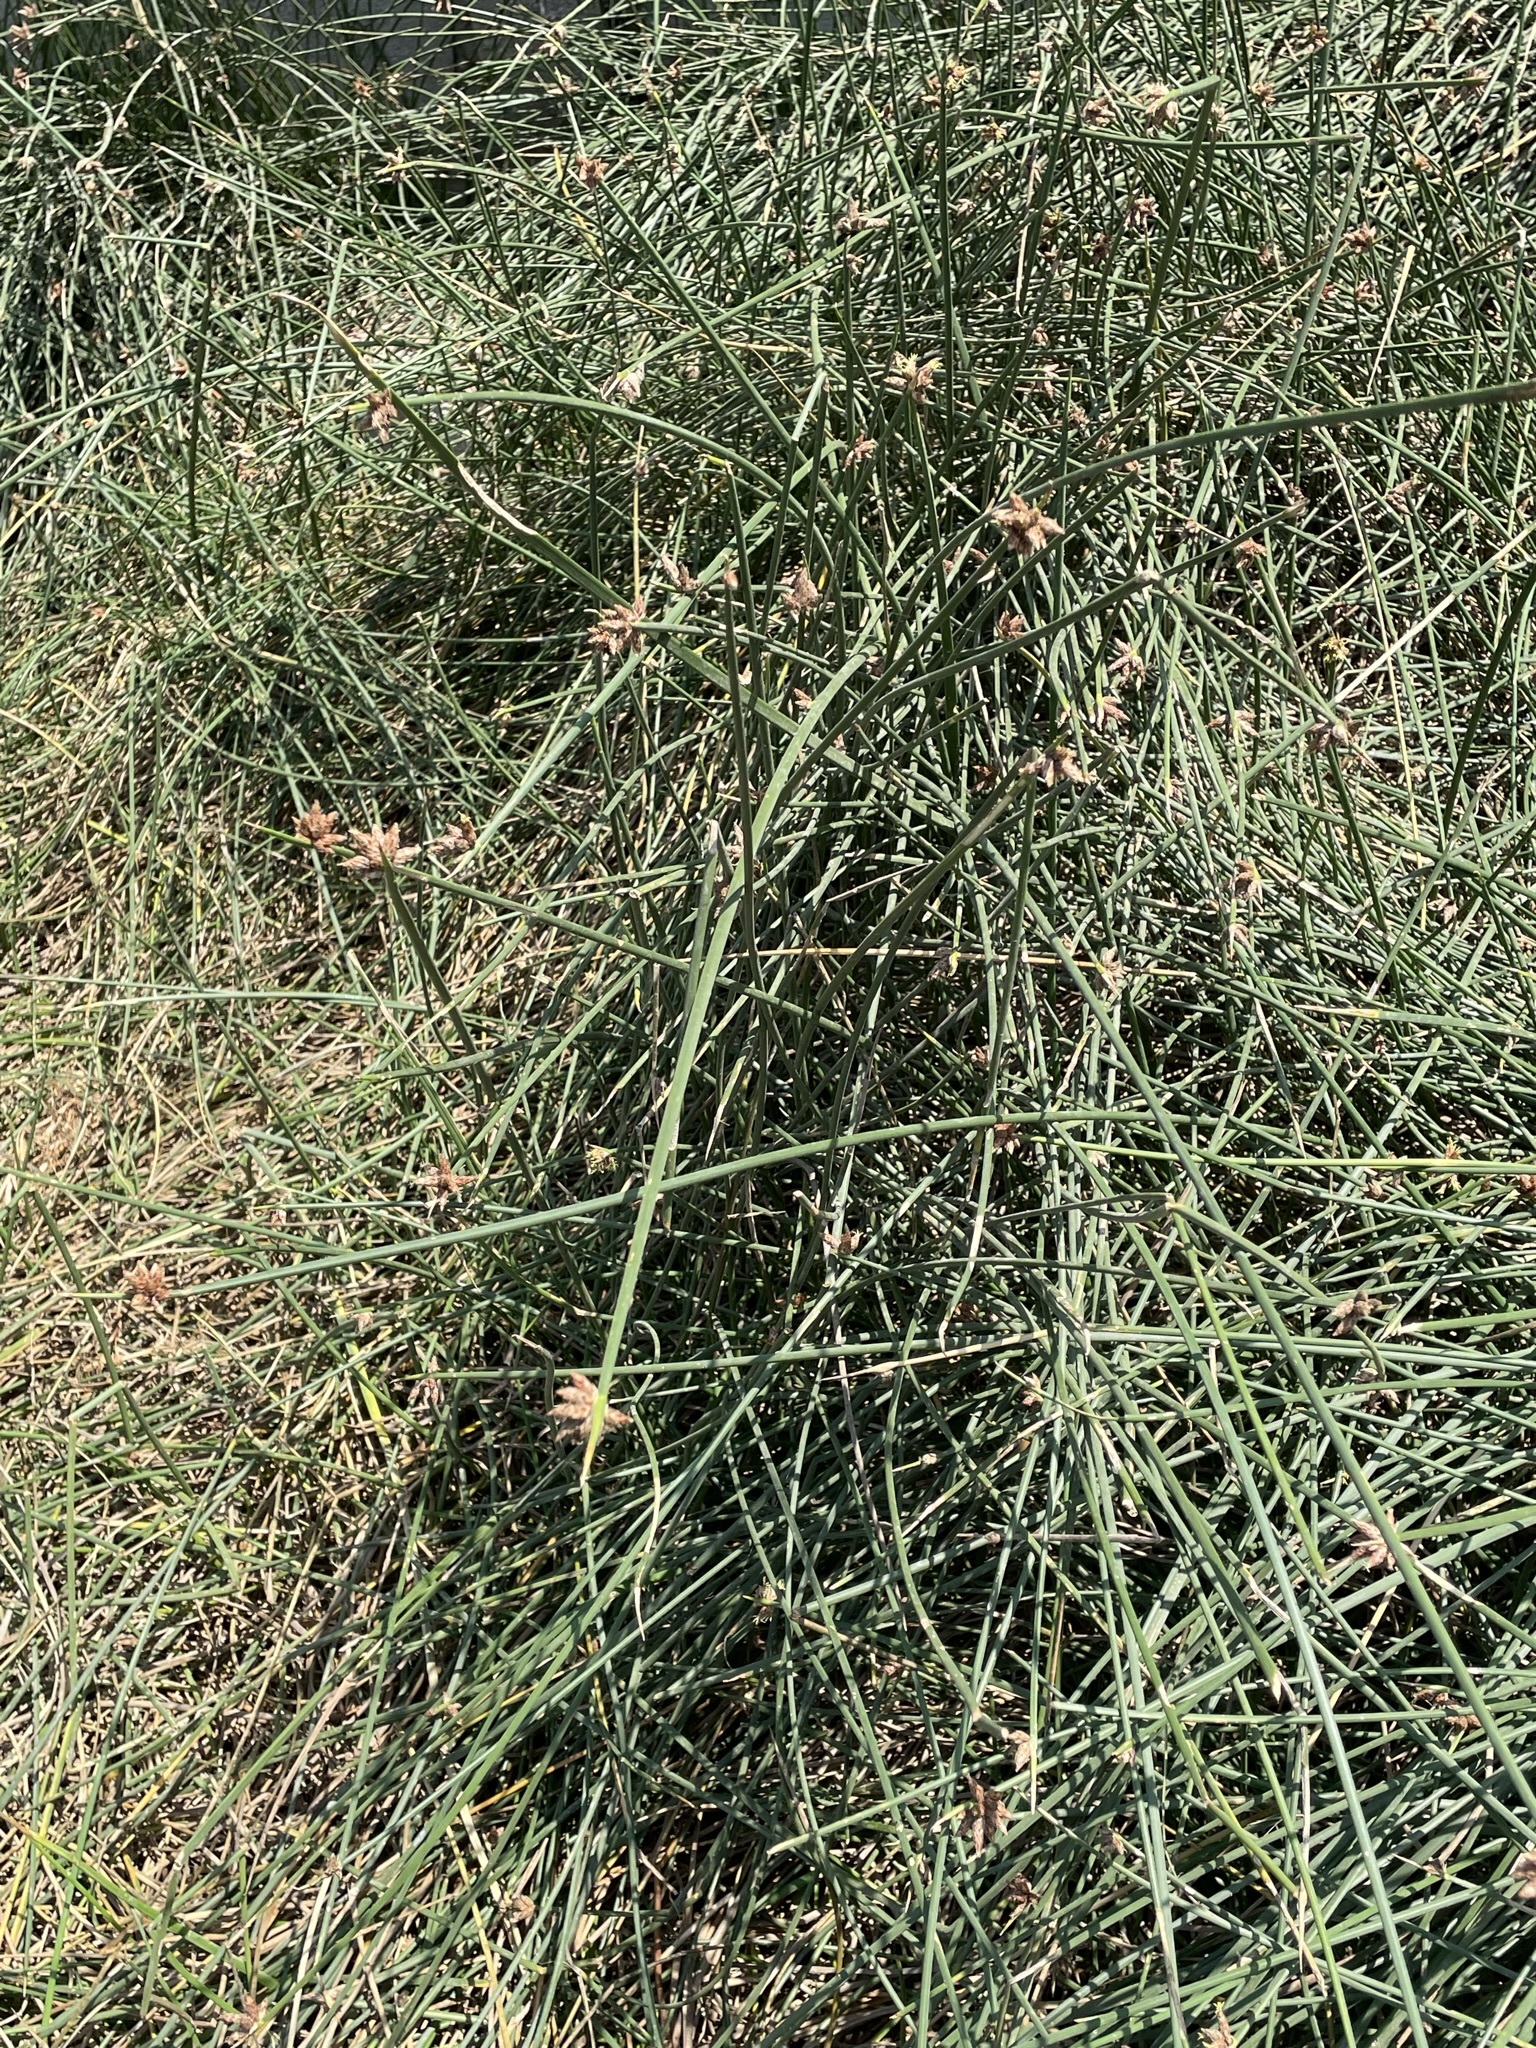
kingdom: Plantae
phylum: Tracheophyta
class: Liliopsida
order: Poales
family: Cyperaceae
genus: Schoenoplectus
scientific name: Schoenoplectus americanus
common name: American three-square bulrush
